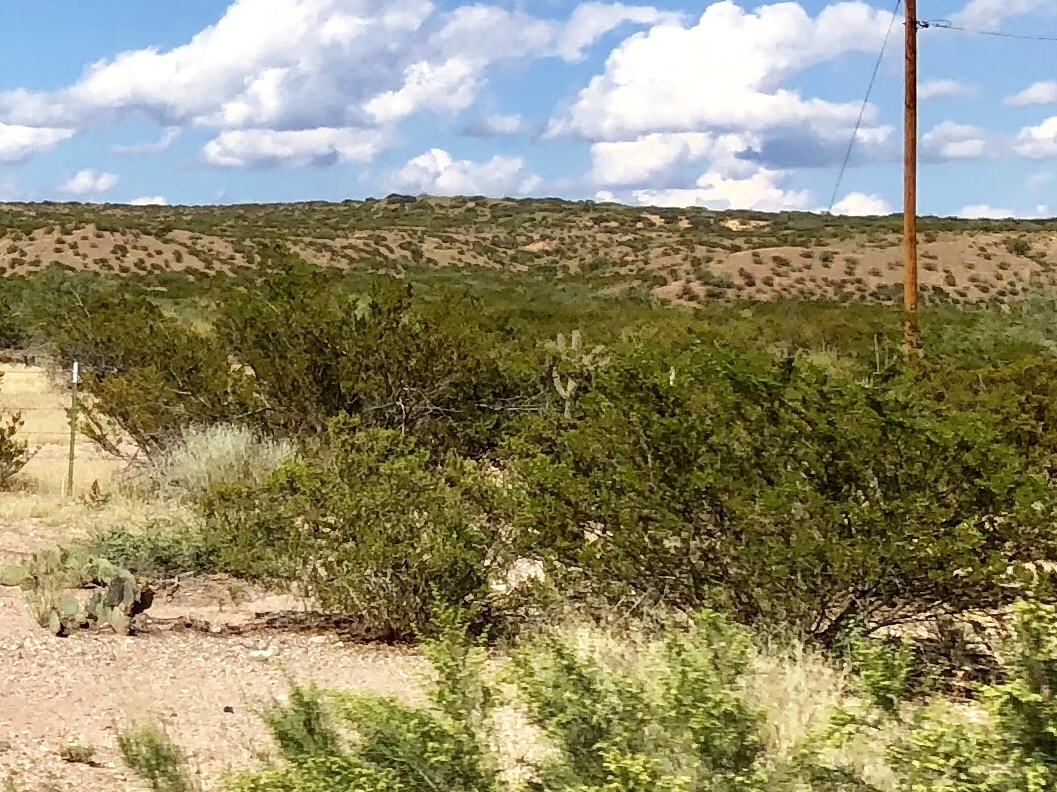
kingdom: Plantae
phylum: Tracheophyta
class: Magnoliopsida
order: Zygophyllales
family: Zygophyllaceae
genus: Larrea
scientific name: Larrea tridentata
